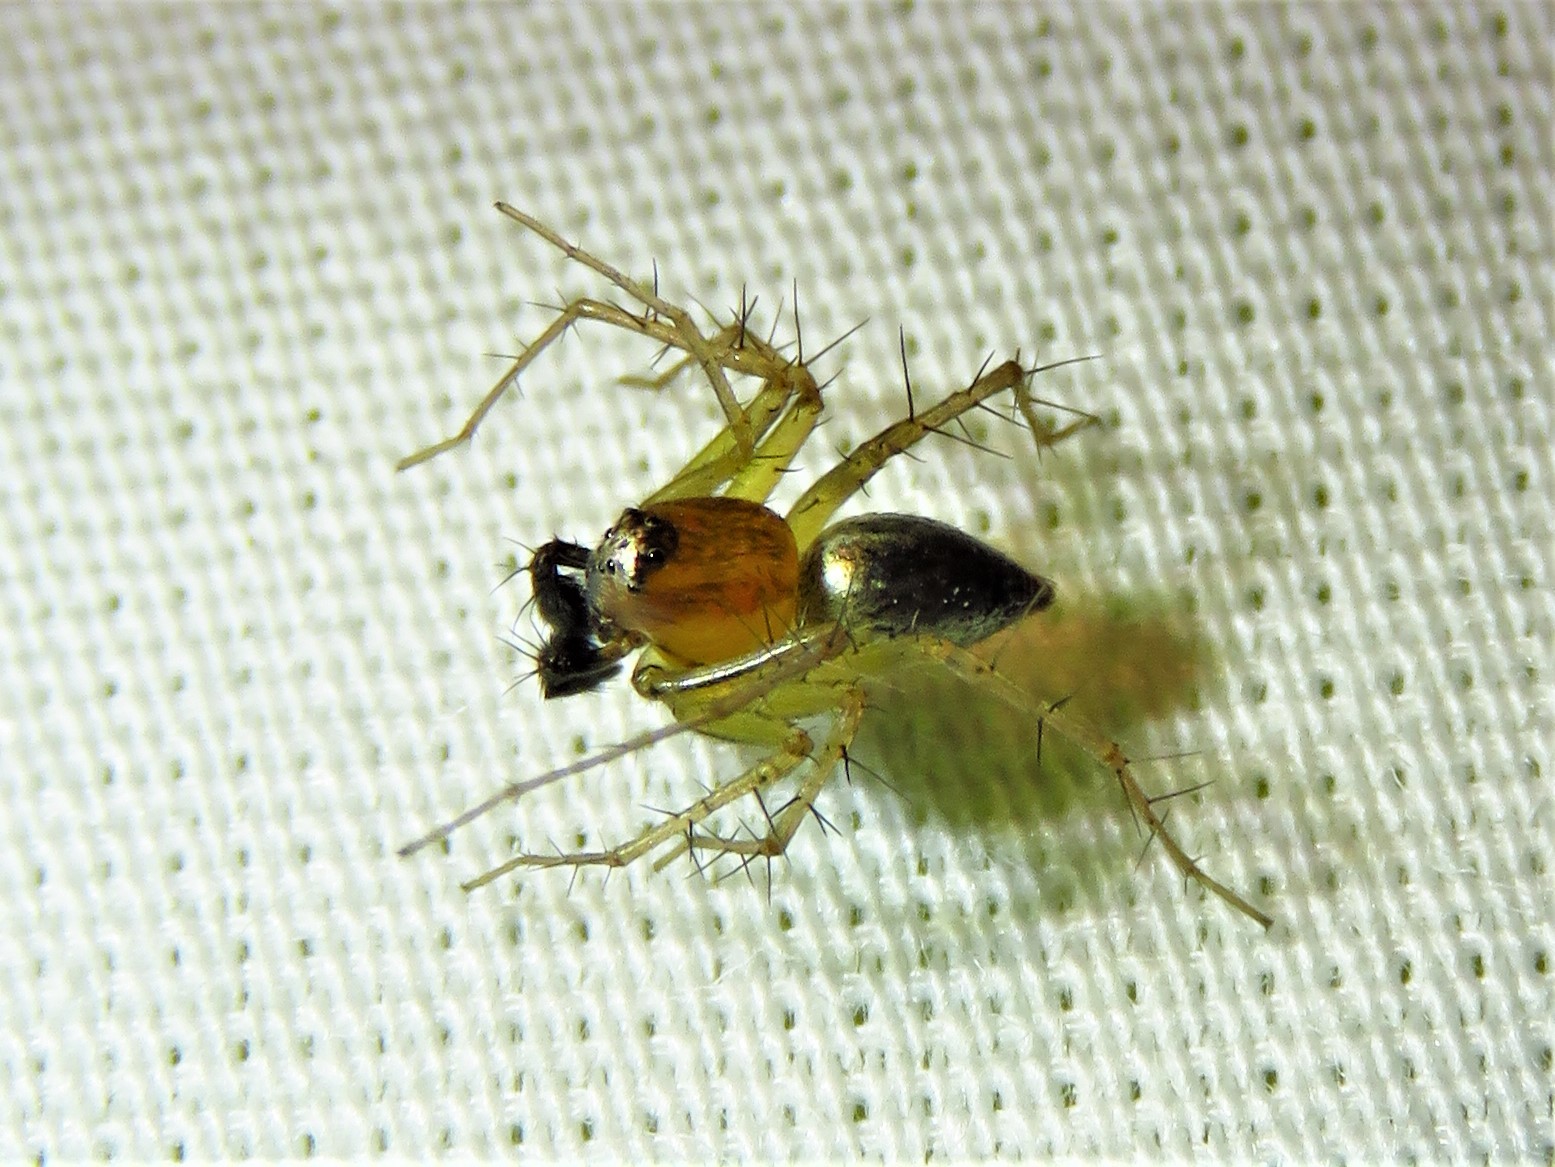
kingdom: Animalia
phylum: Arthropoda
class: Arachnida
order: Araneae
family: Oxyopidae
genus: Oxyopes
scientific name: Oxyopes salticus
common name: Lynx spiders
